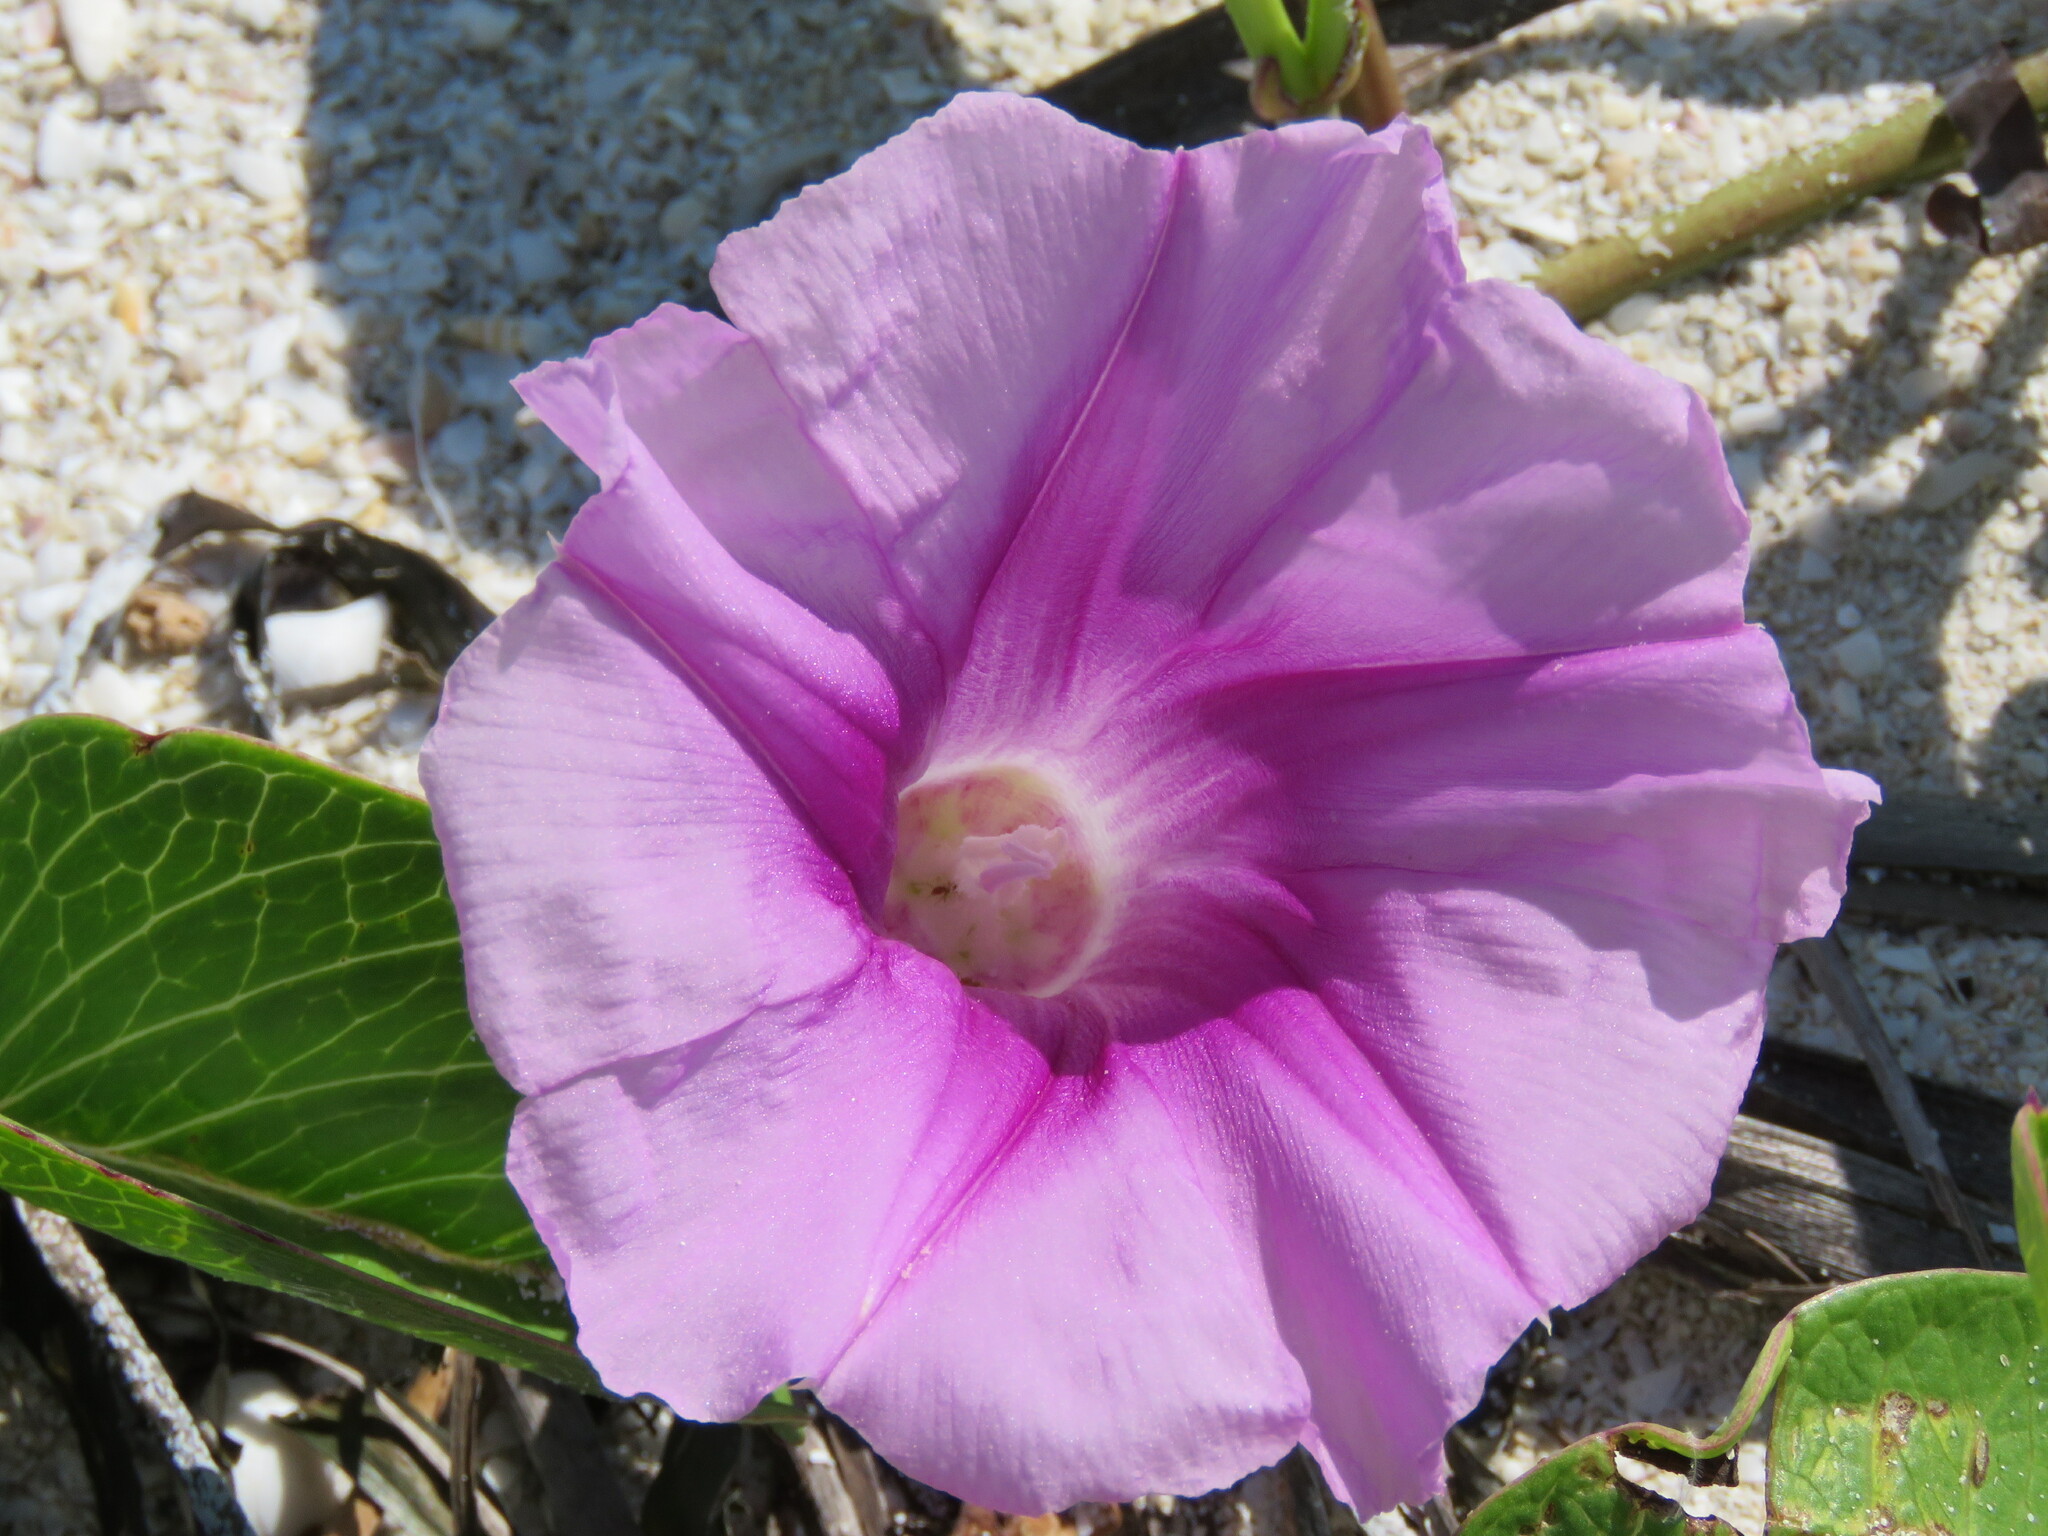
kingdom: Plantae
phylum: Tracheophyta
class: Magnoliopsida
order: Solanales
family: Convolvulaceae
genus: Ipomoea
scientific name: Ipomoea pes-caprae
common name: Beach morning glory
